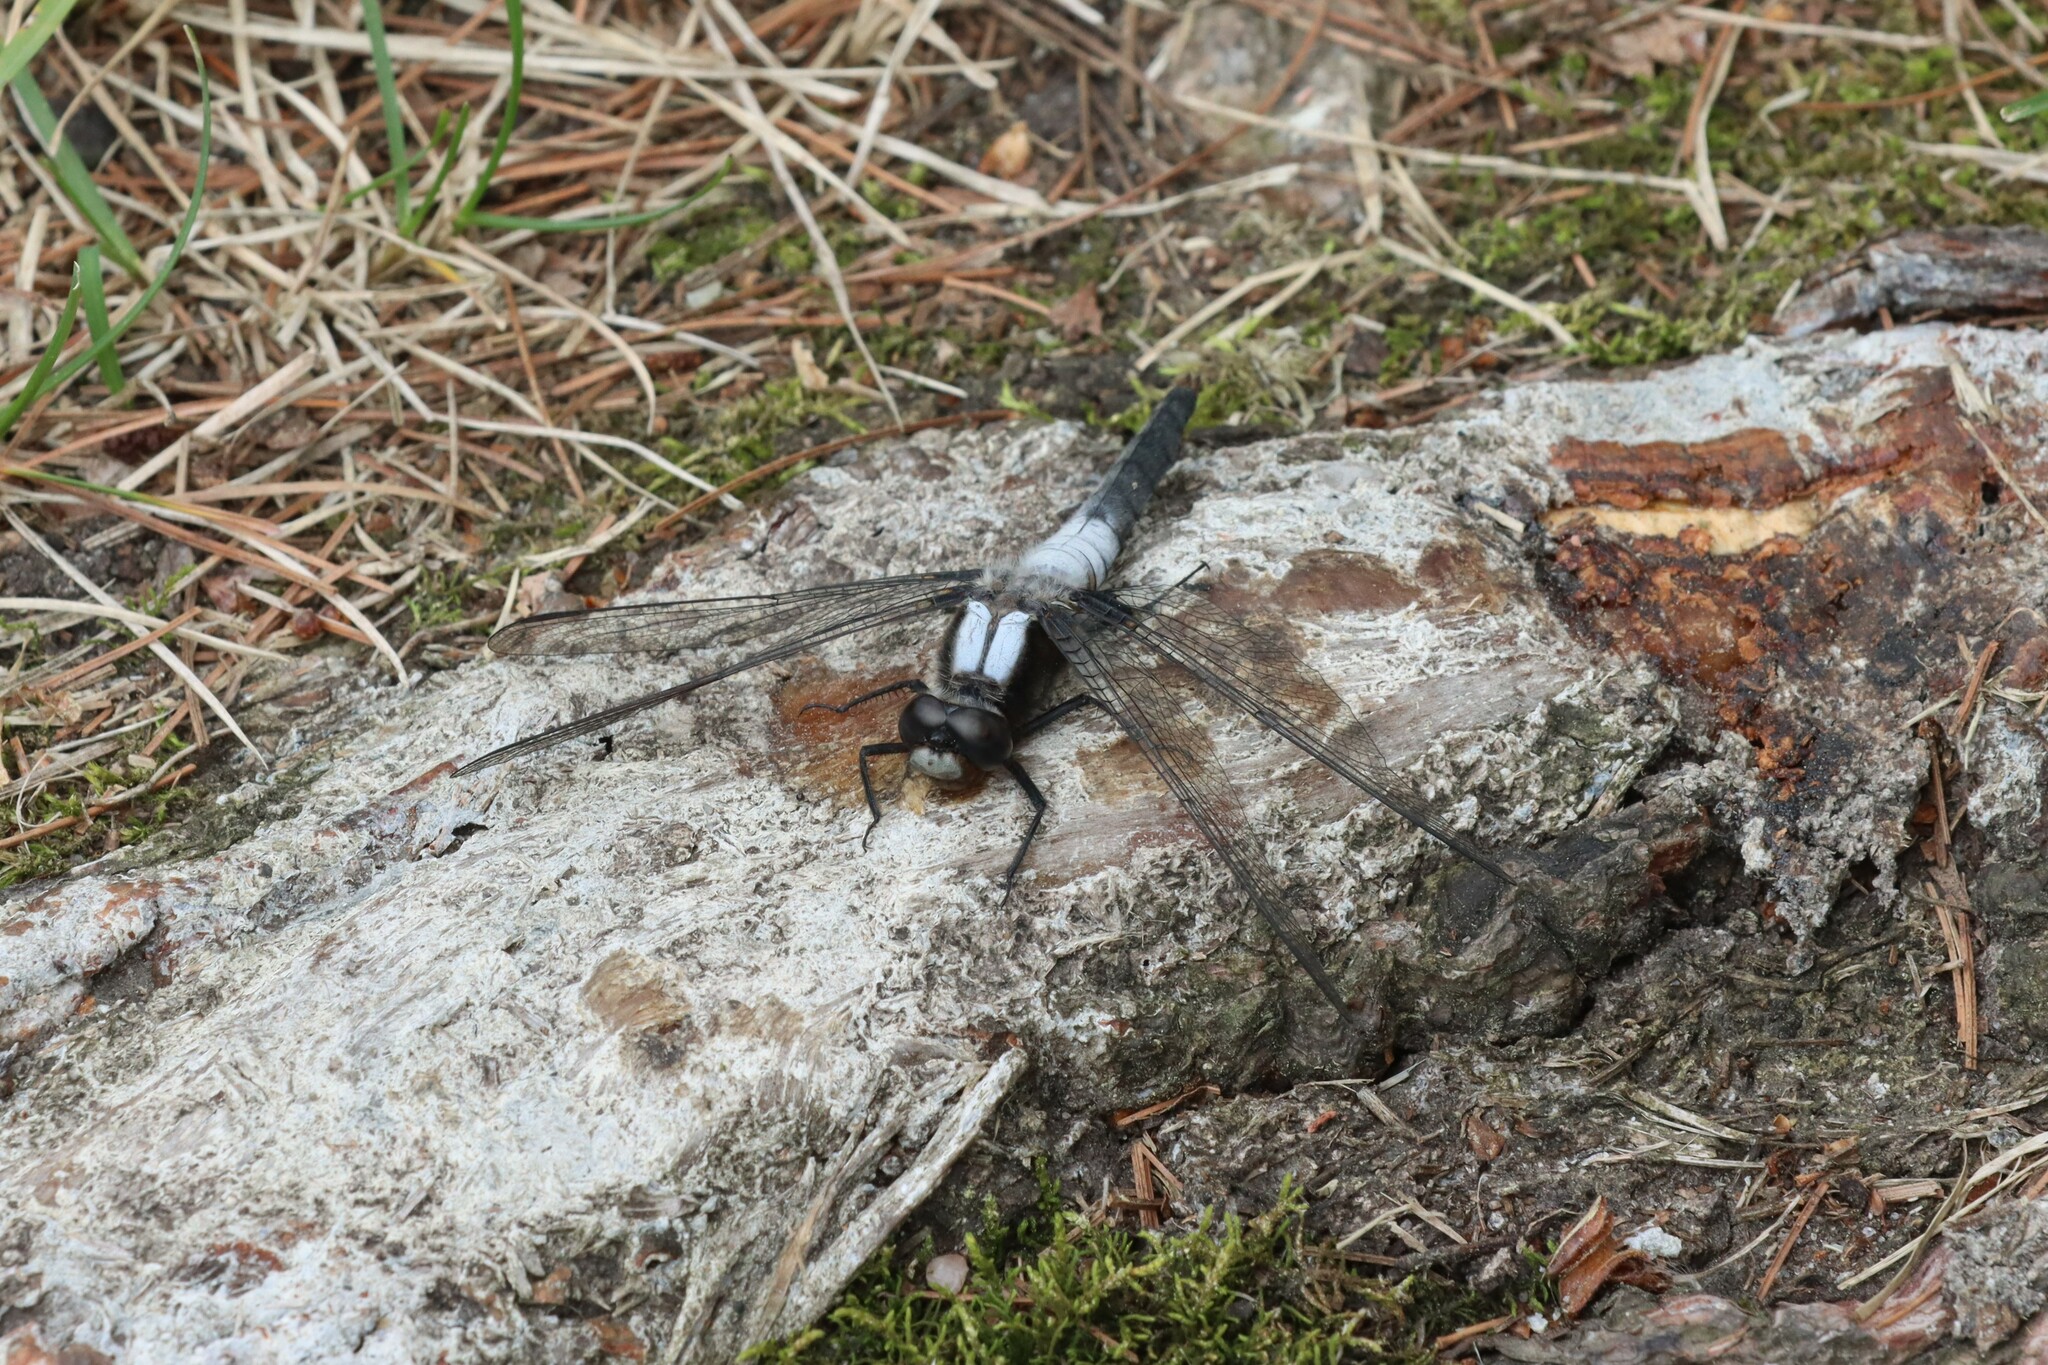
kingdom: Animalia
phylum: Arthropoda
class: Insecta
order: Odonata
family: Libellulidae
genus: Ladona
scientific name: Ladona julia
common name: Chalk-fronted corporal
